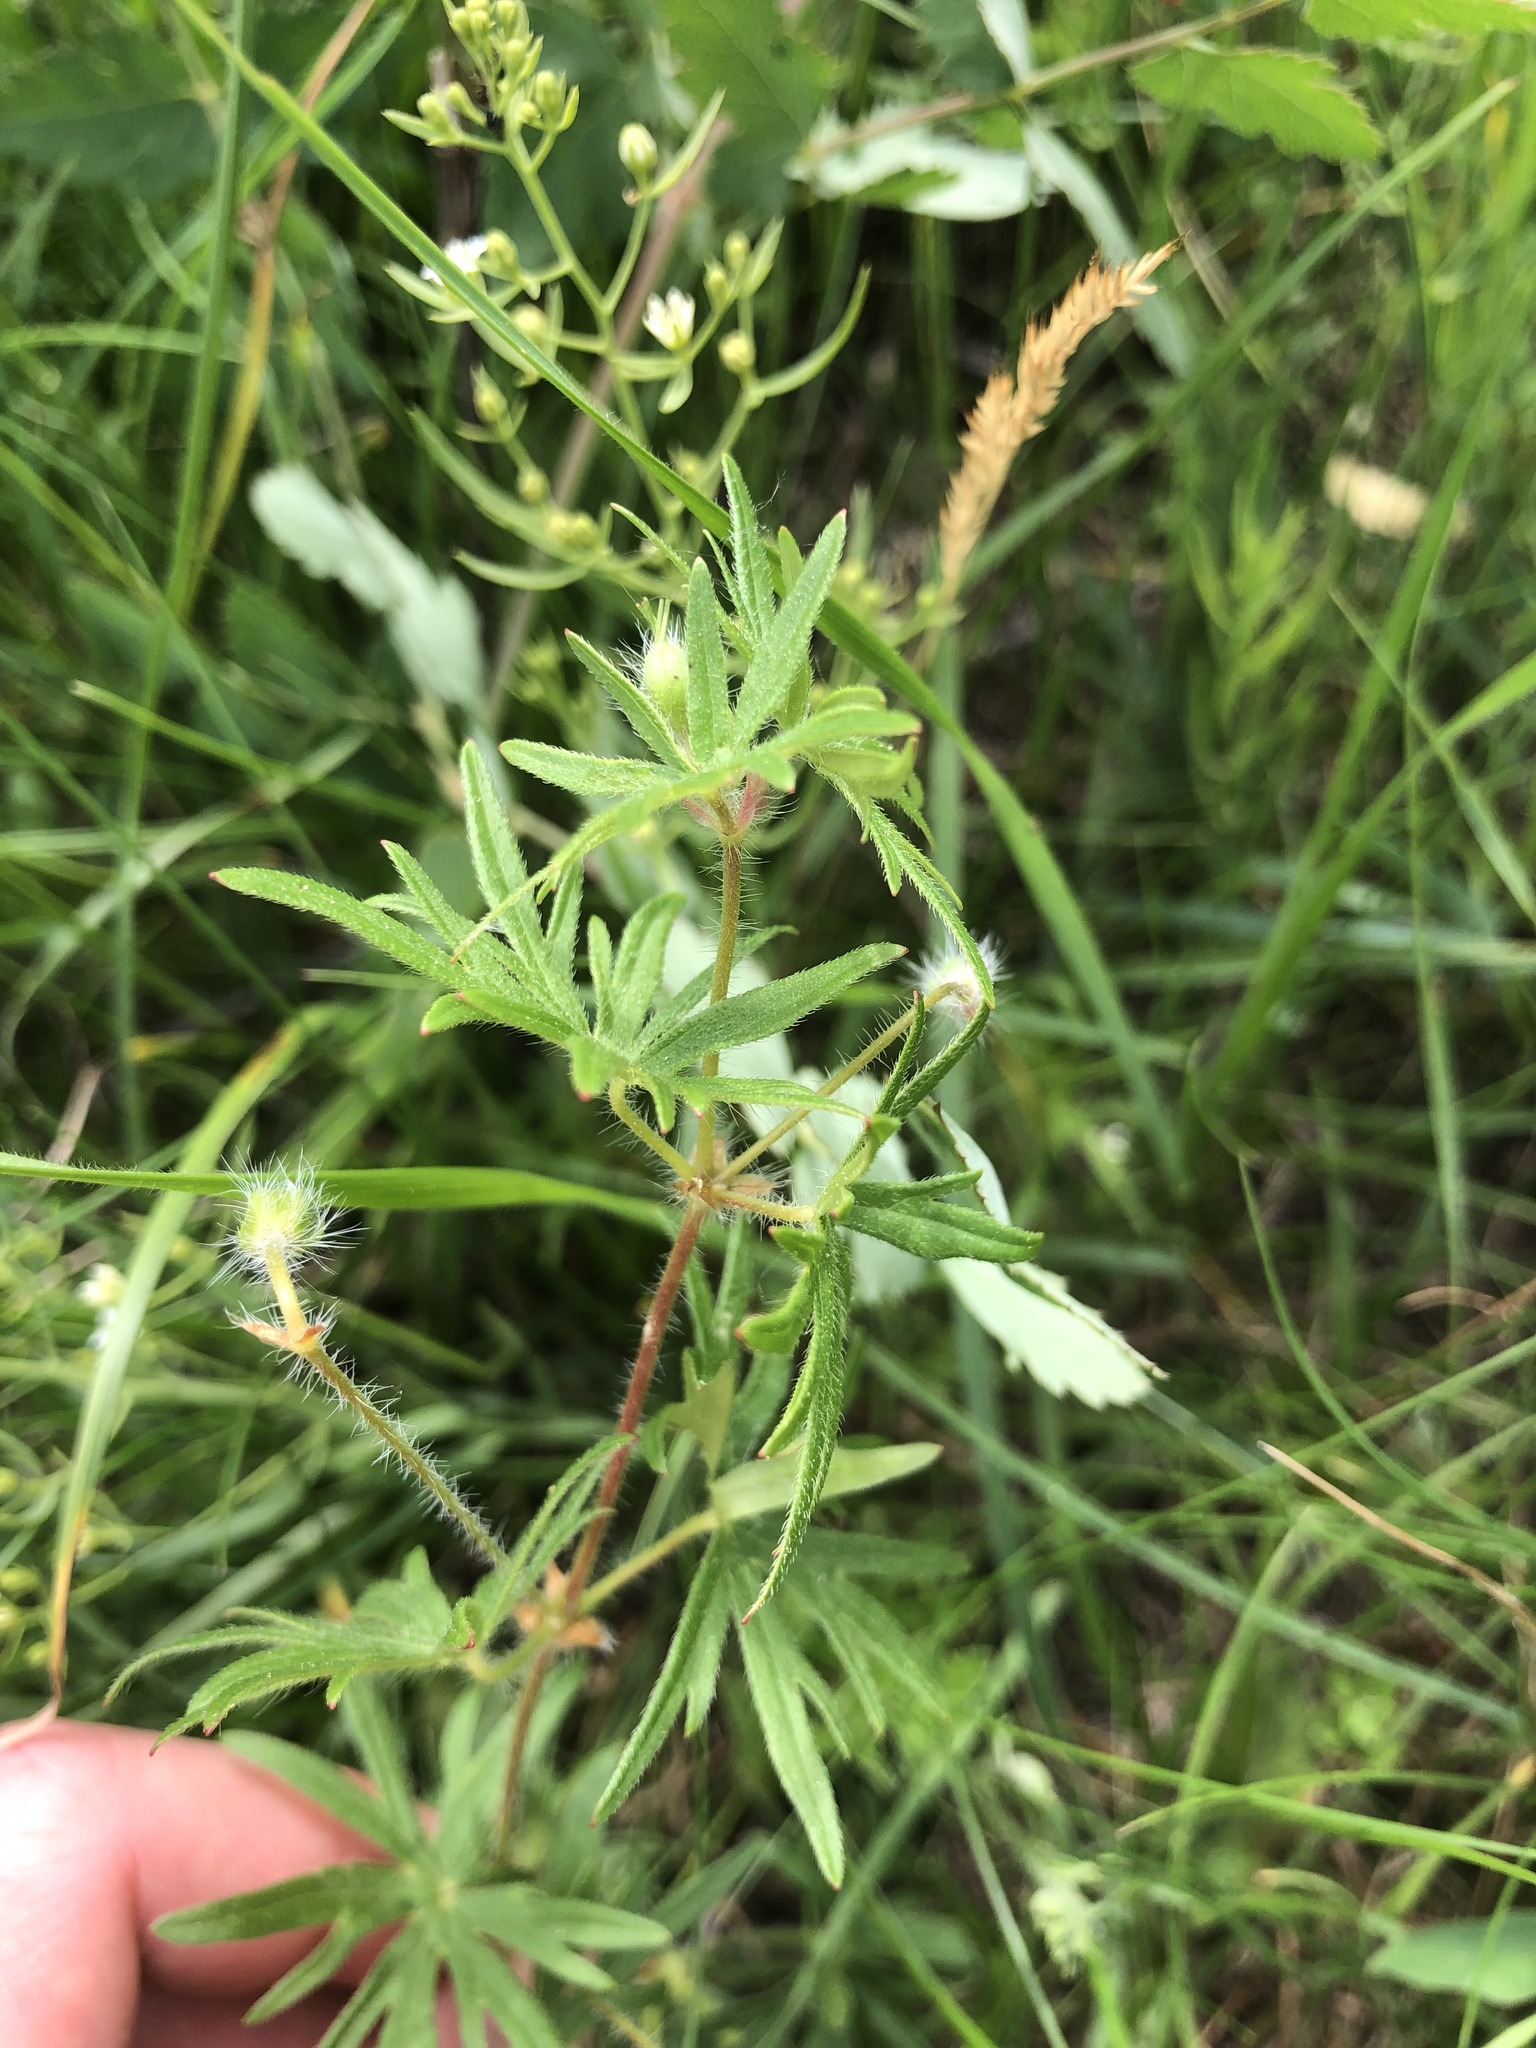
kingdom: Plantae
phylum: Tracheophyta
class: Magnoliopsida
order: Geraniales
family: Geraniaceae
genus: Geranium
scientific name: Geranium sanguineum
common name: Bloody crane's-bill
